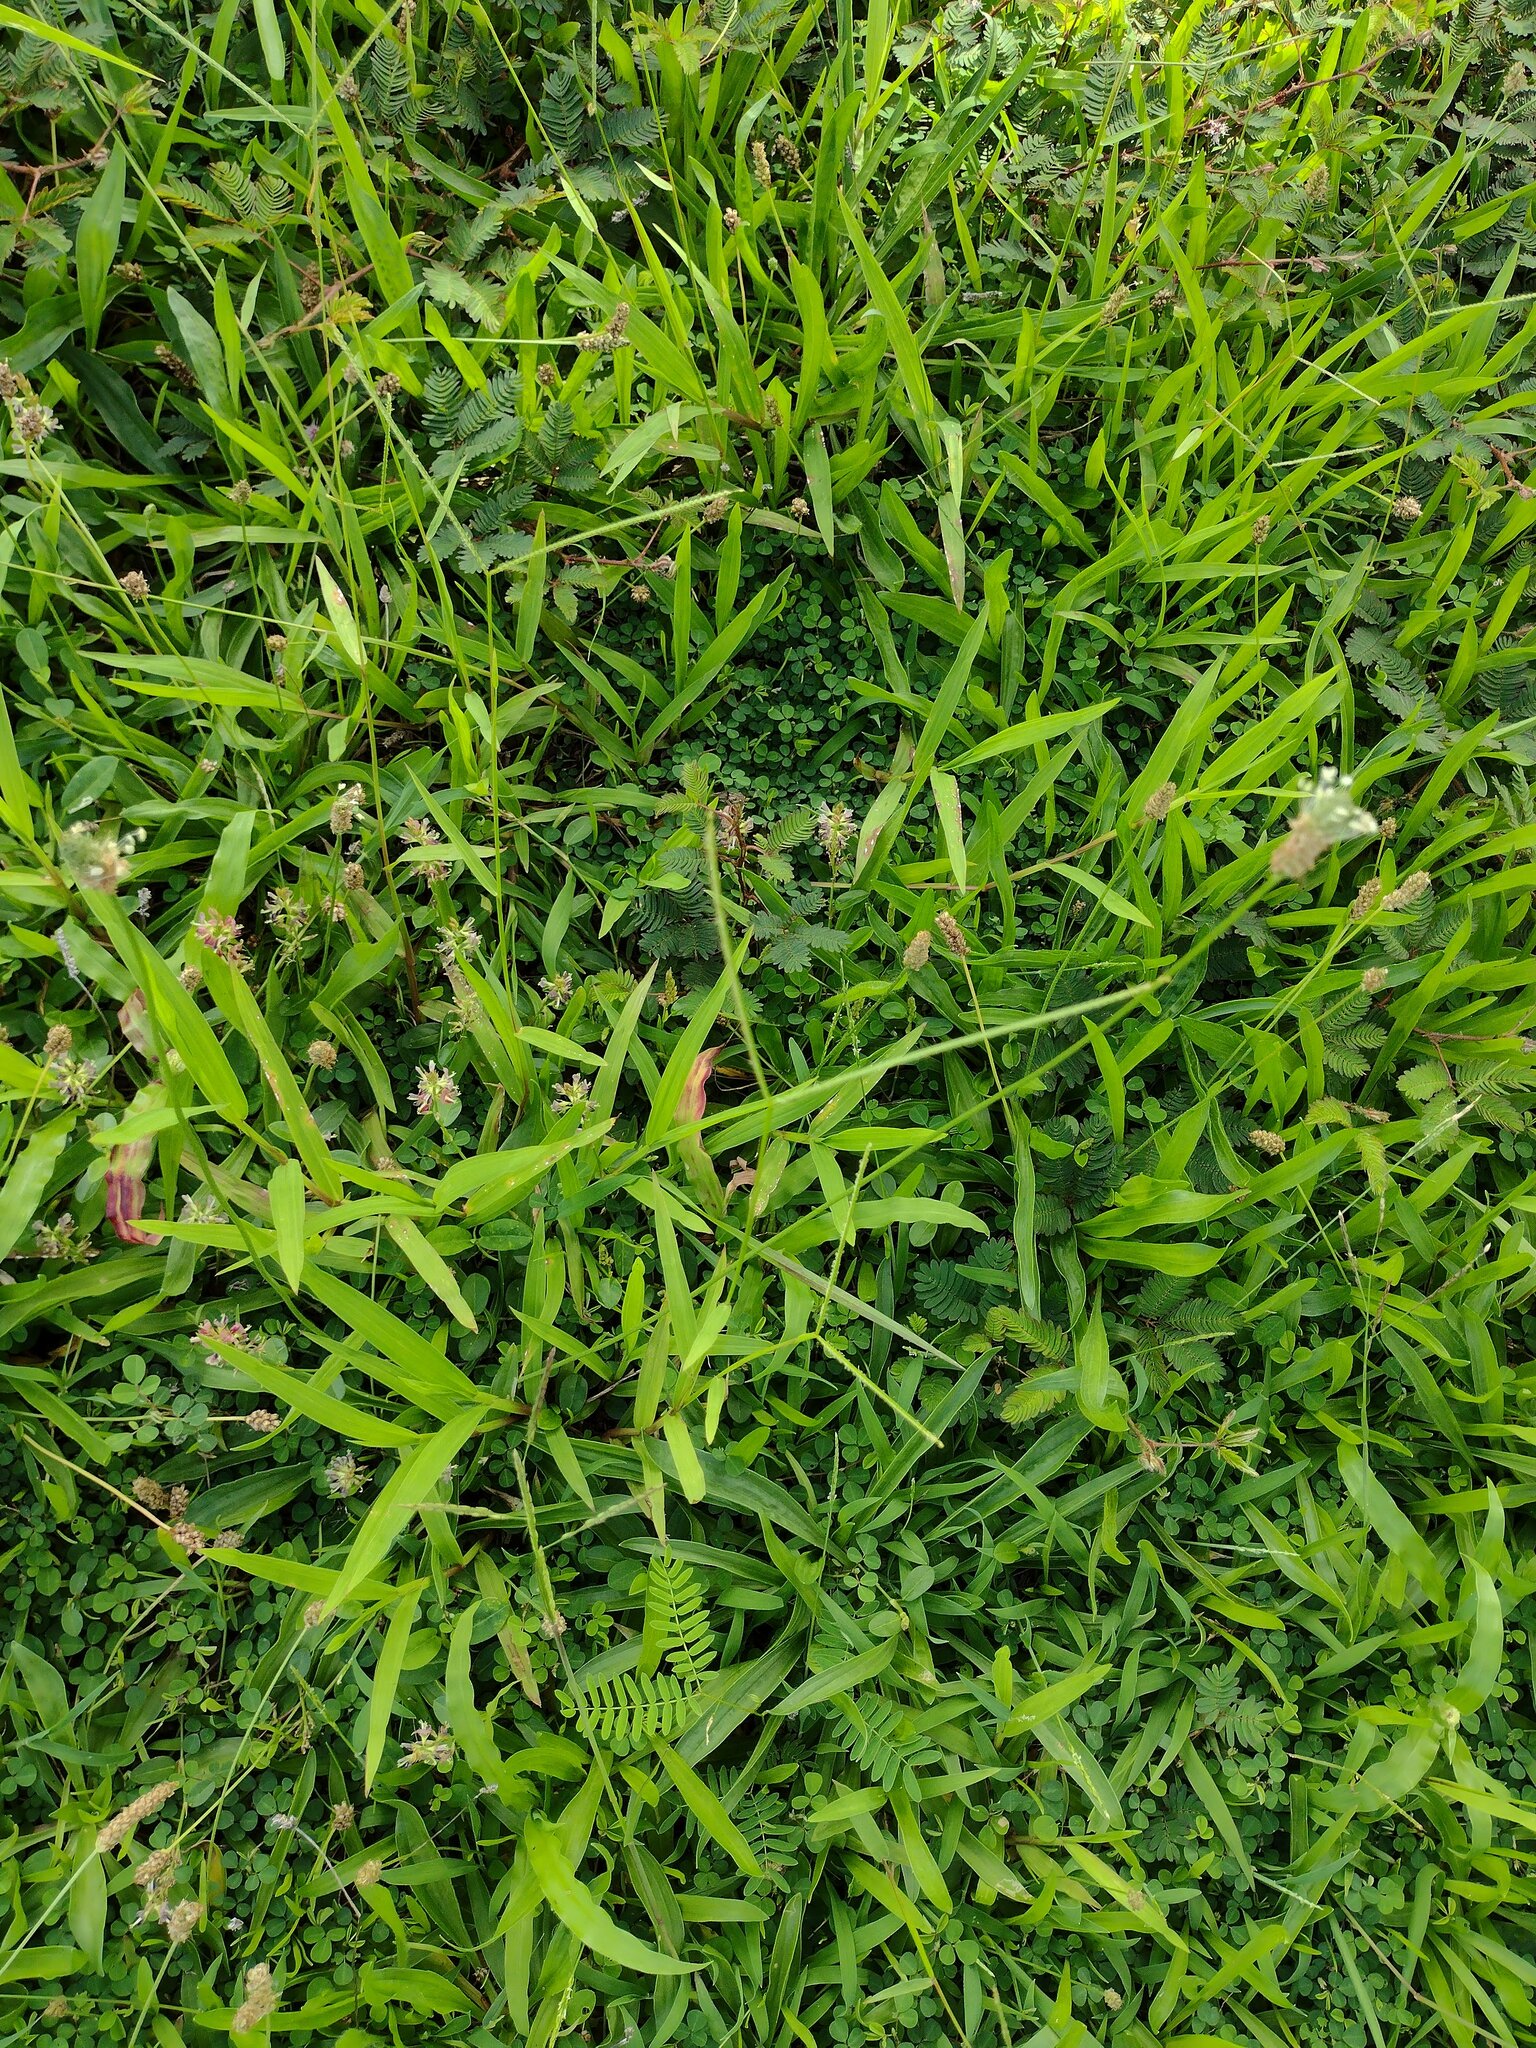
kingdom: Plantae
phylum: Tracheophyta
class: Liliopsida
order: Poales
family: Poaceae
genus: Paspalum
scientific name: Paspalum conjugatum
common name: Hilograss
